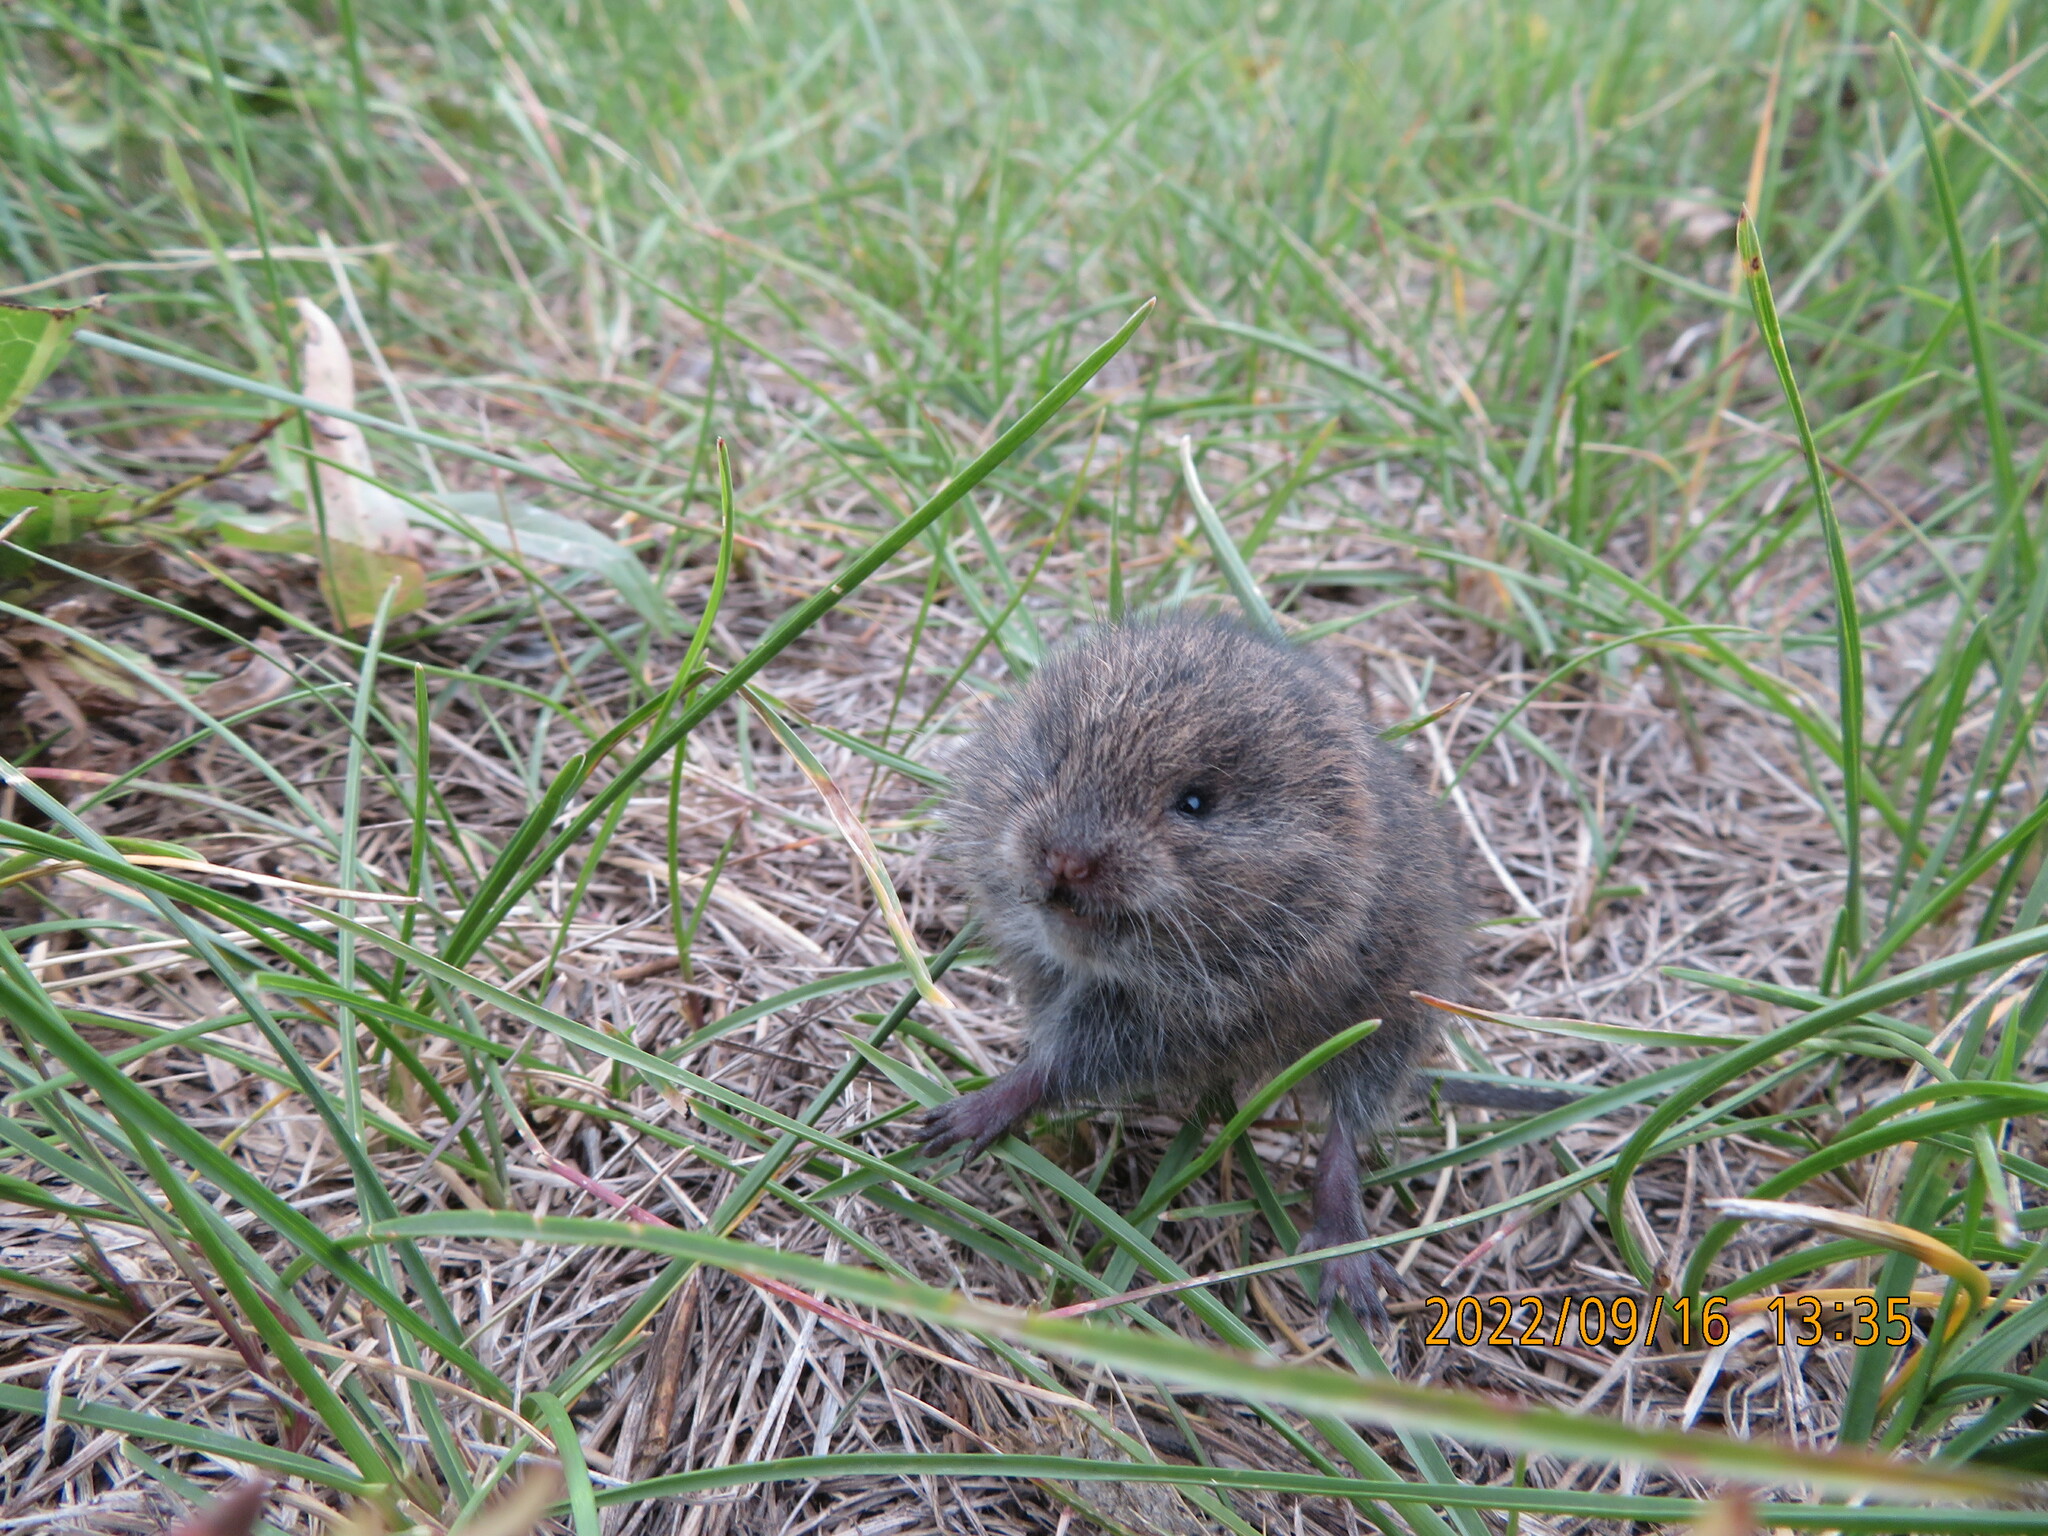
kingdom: Animalia
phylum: Chordata
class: Mammalia
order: Rodentia
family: Cricetidae
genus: Microtus
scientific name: Microtus pennsylvanicus
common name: Meadow vole
